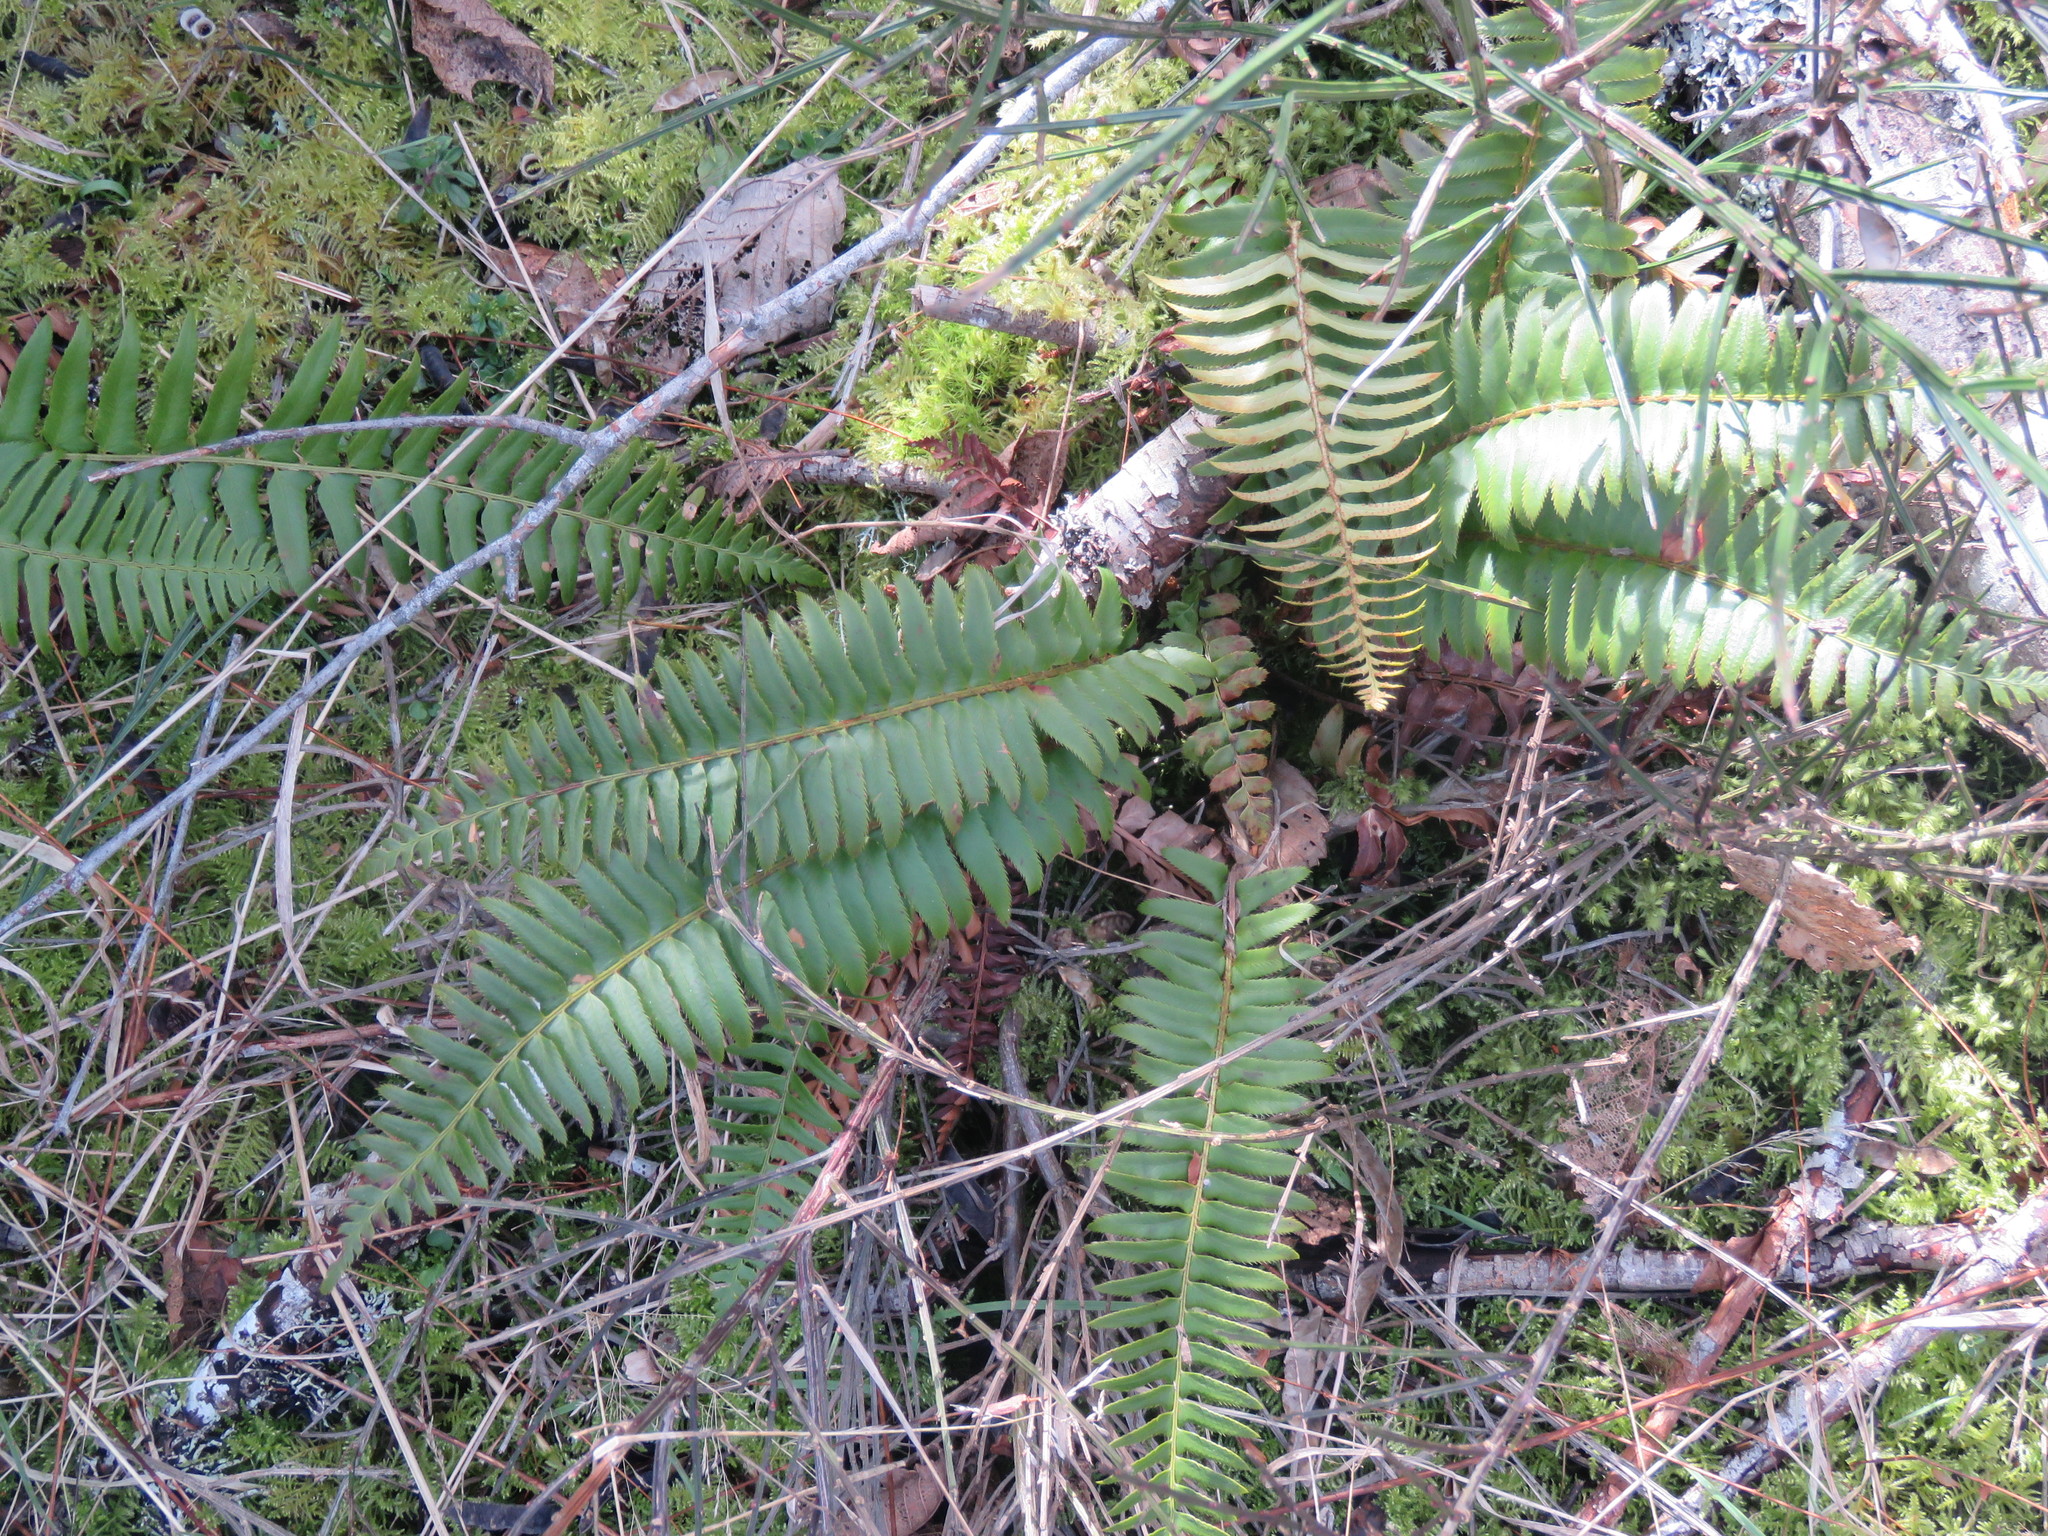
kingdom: Plantae
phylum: Tracheophyta
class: Polypodiopsida
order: Polypodiales
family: Dryopteridaceae
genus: Polystichum
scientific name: Polystichum munitum
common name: Western sword-fern
